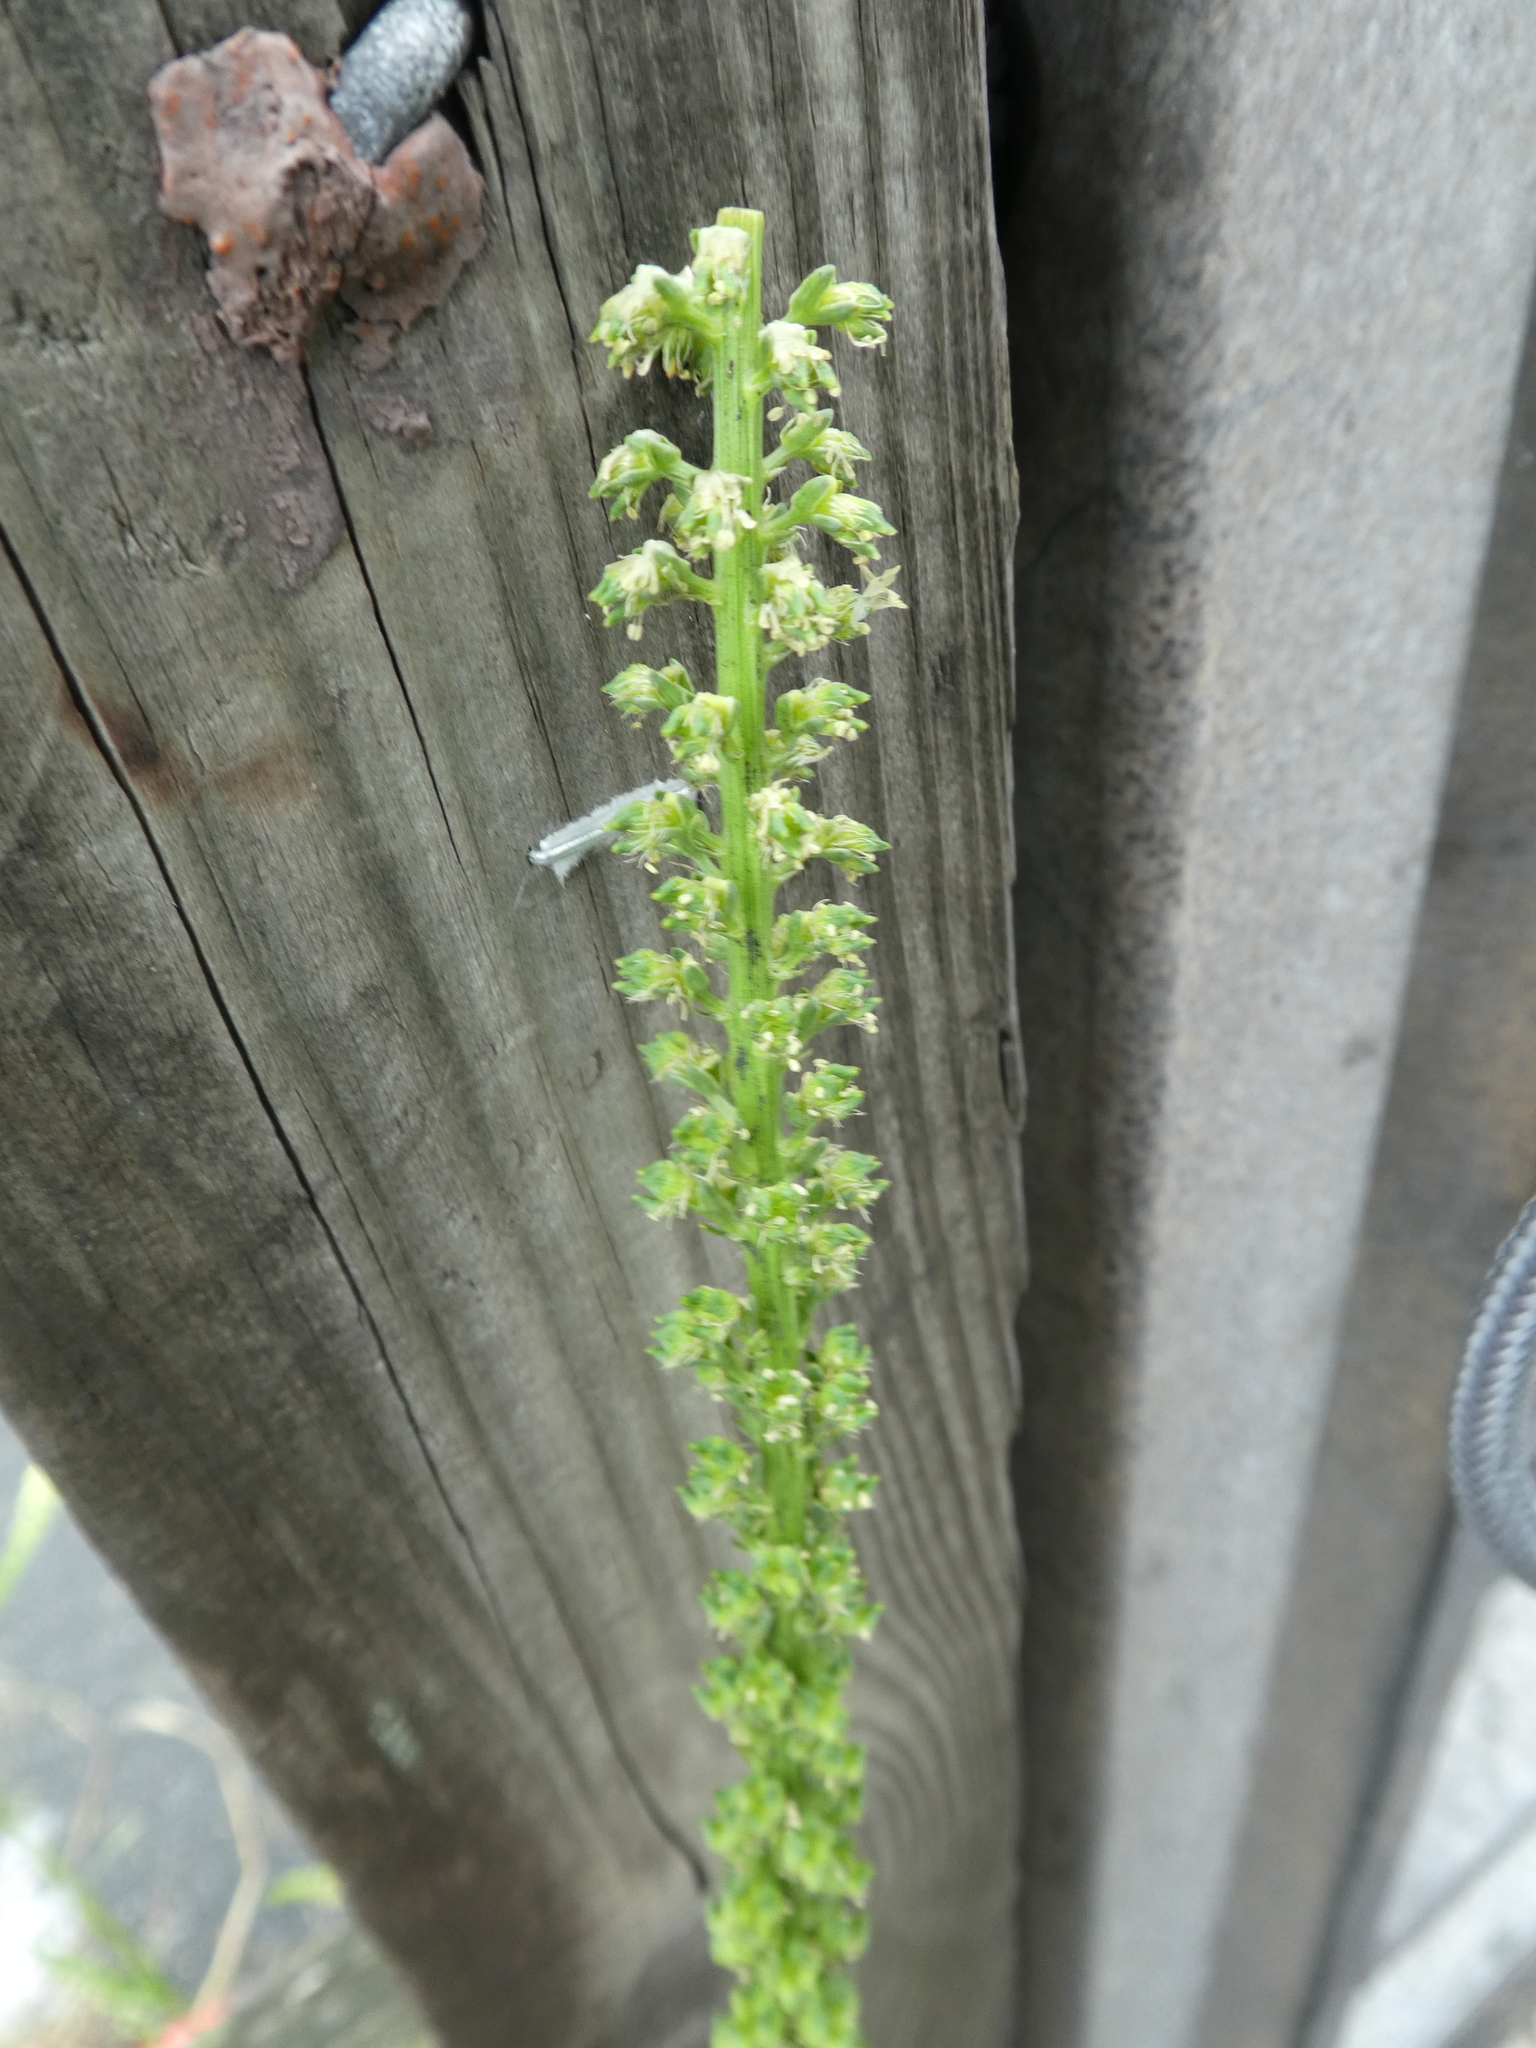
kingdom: Plantae
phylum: Tracheophyta
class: Magnoliopsida
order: Brassicales
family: Resedaceae
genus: Reseda
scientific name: Reseda luteola
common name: Weld
